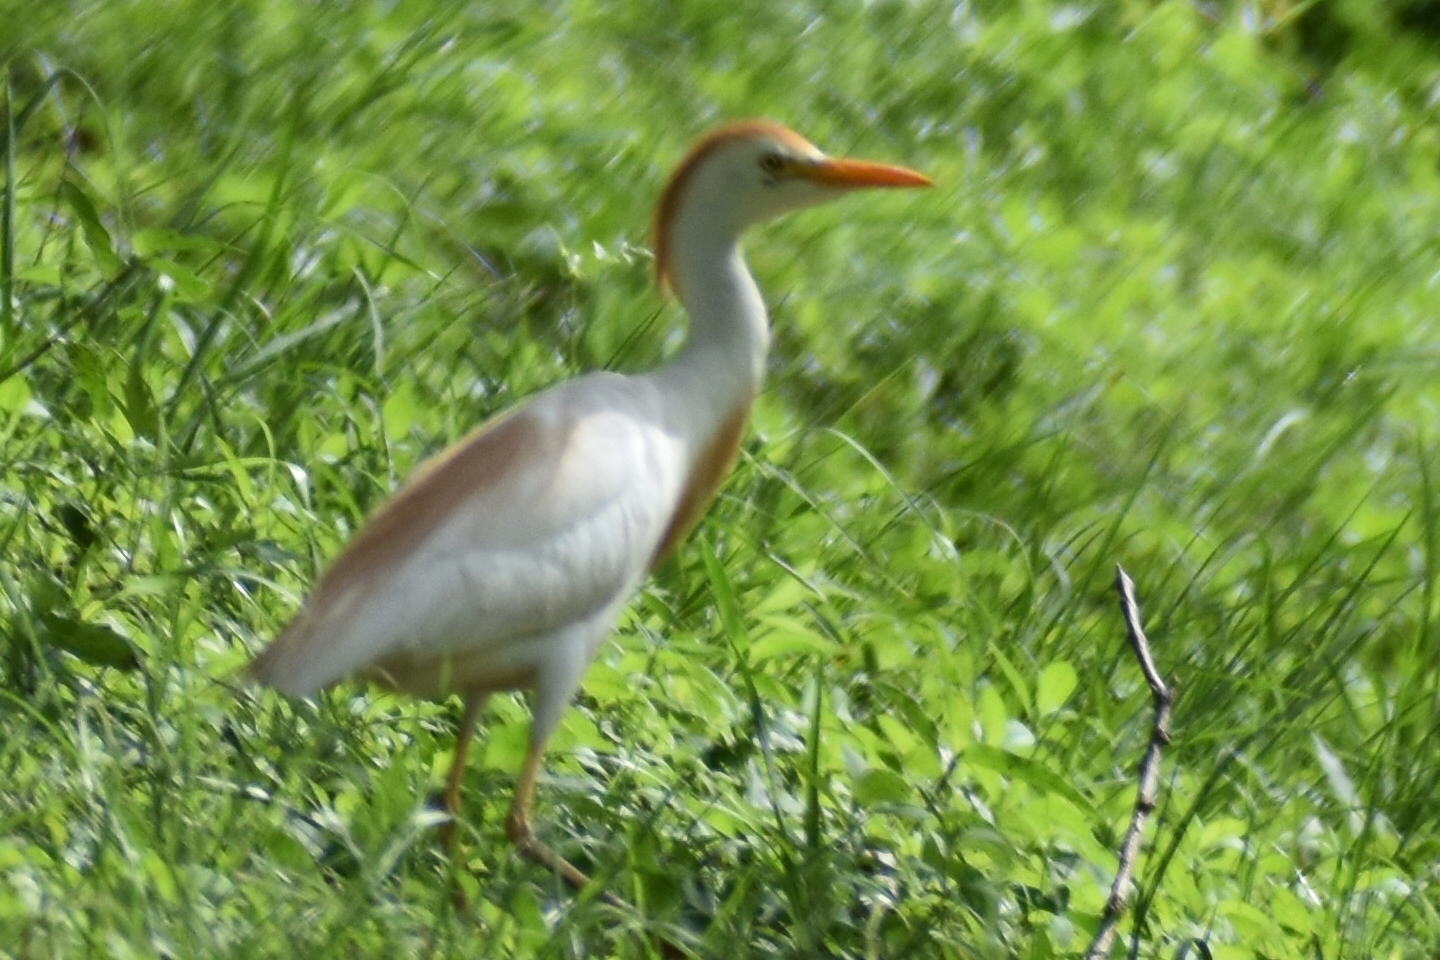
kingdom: Animalia
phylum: Chordata
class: Aves
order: Pelecaniformes
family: Ardeidae
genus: Bubulcus
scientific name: Bubulcus ibis
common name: Cattle egret
